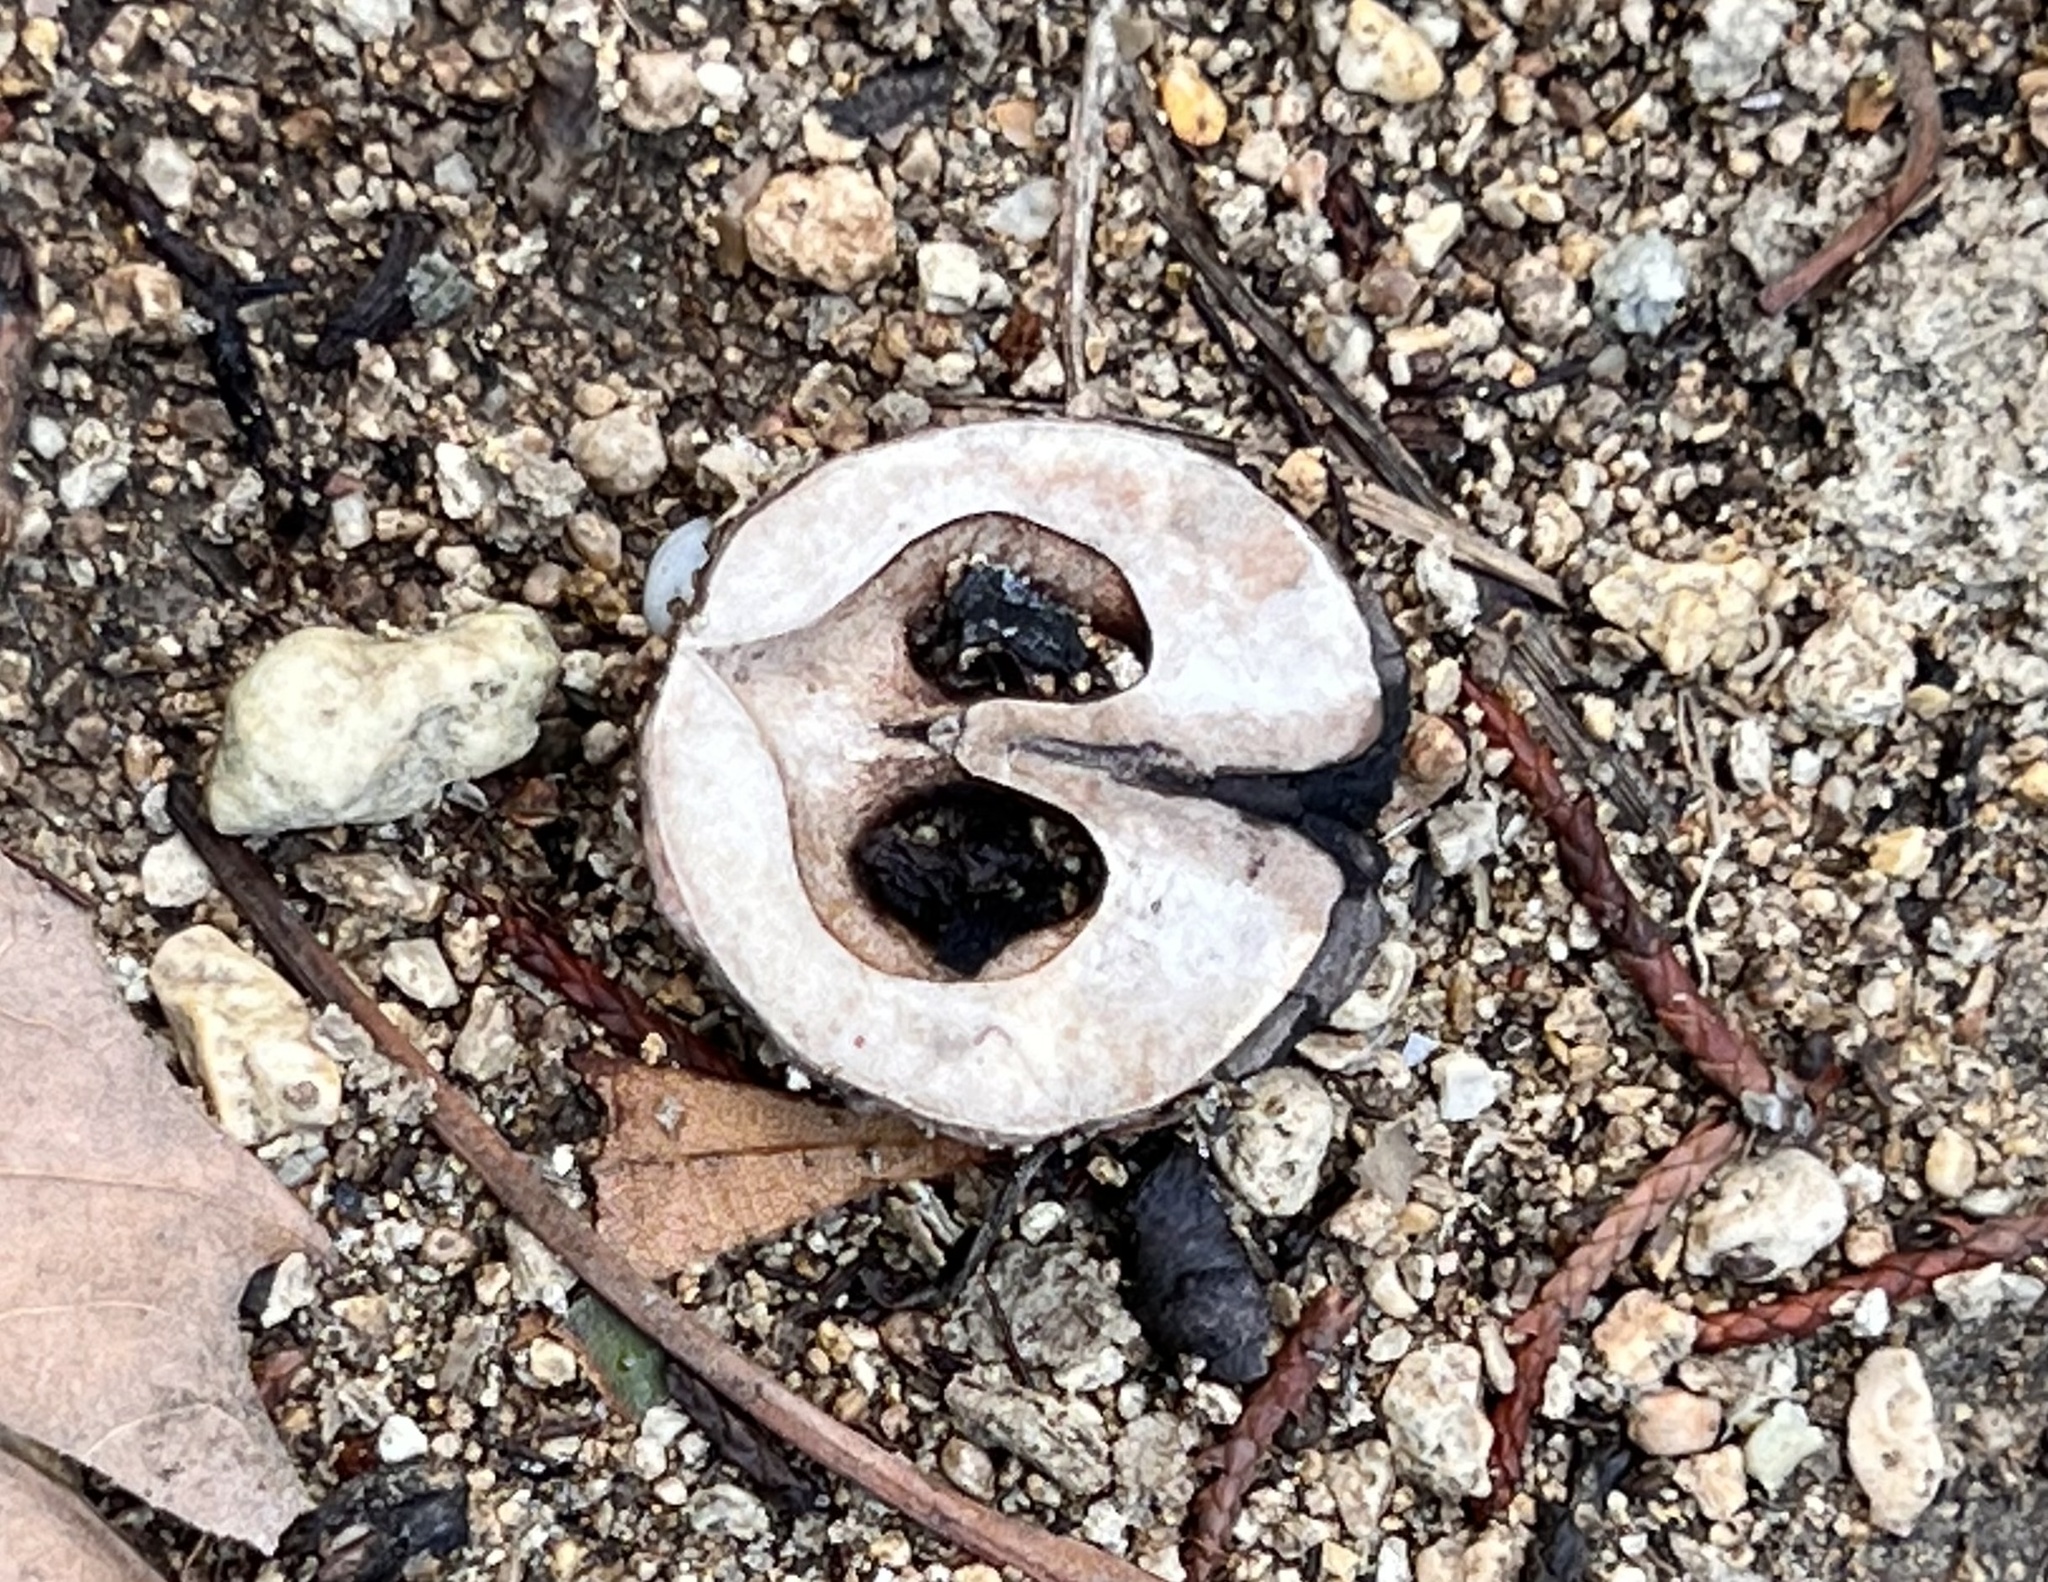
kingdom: Plantae
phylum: Tracheophyta
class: Magnoliopsida
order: Fagales
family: Juglandaceae
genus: Carya
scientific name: Carya texana
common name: Black hickory
